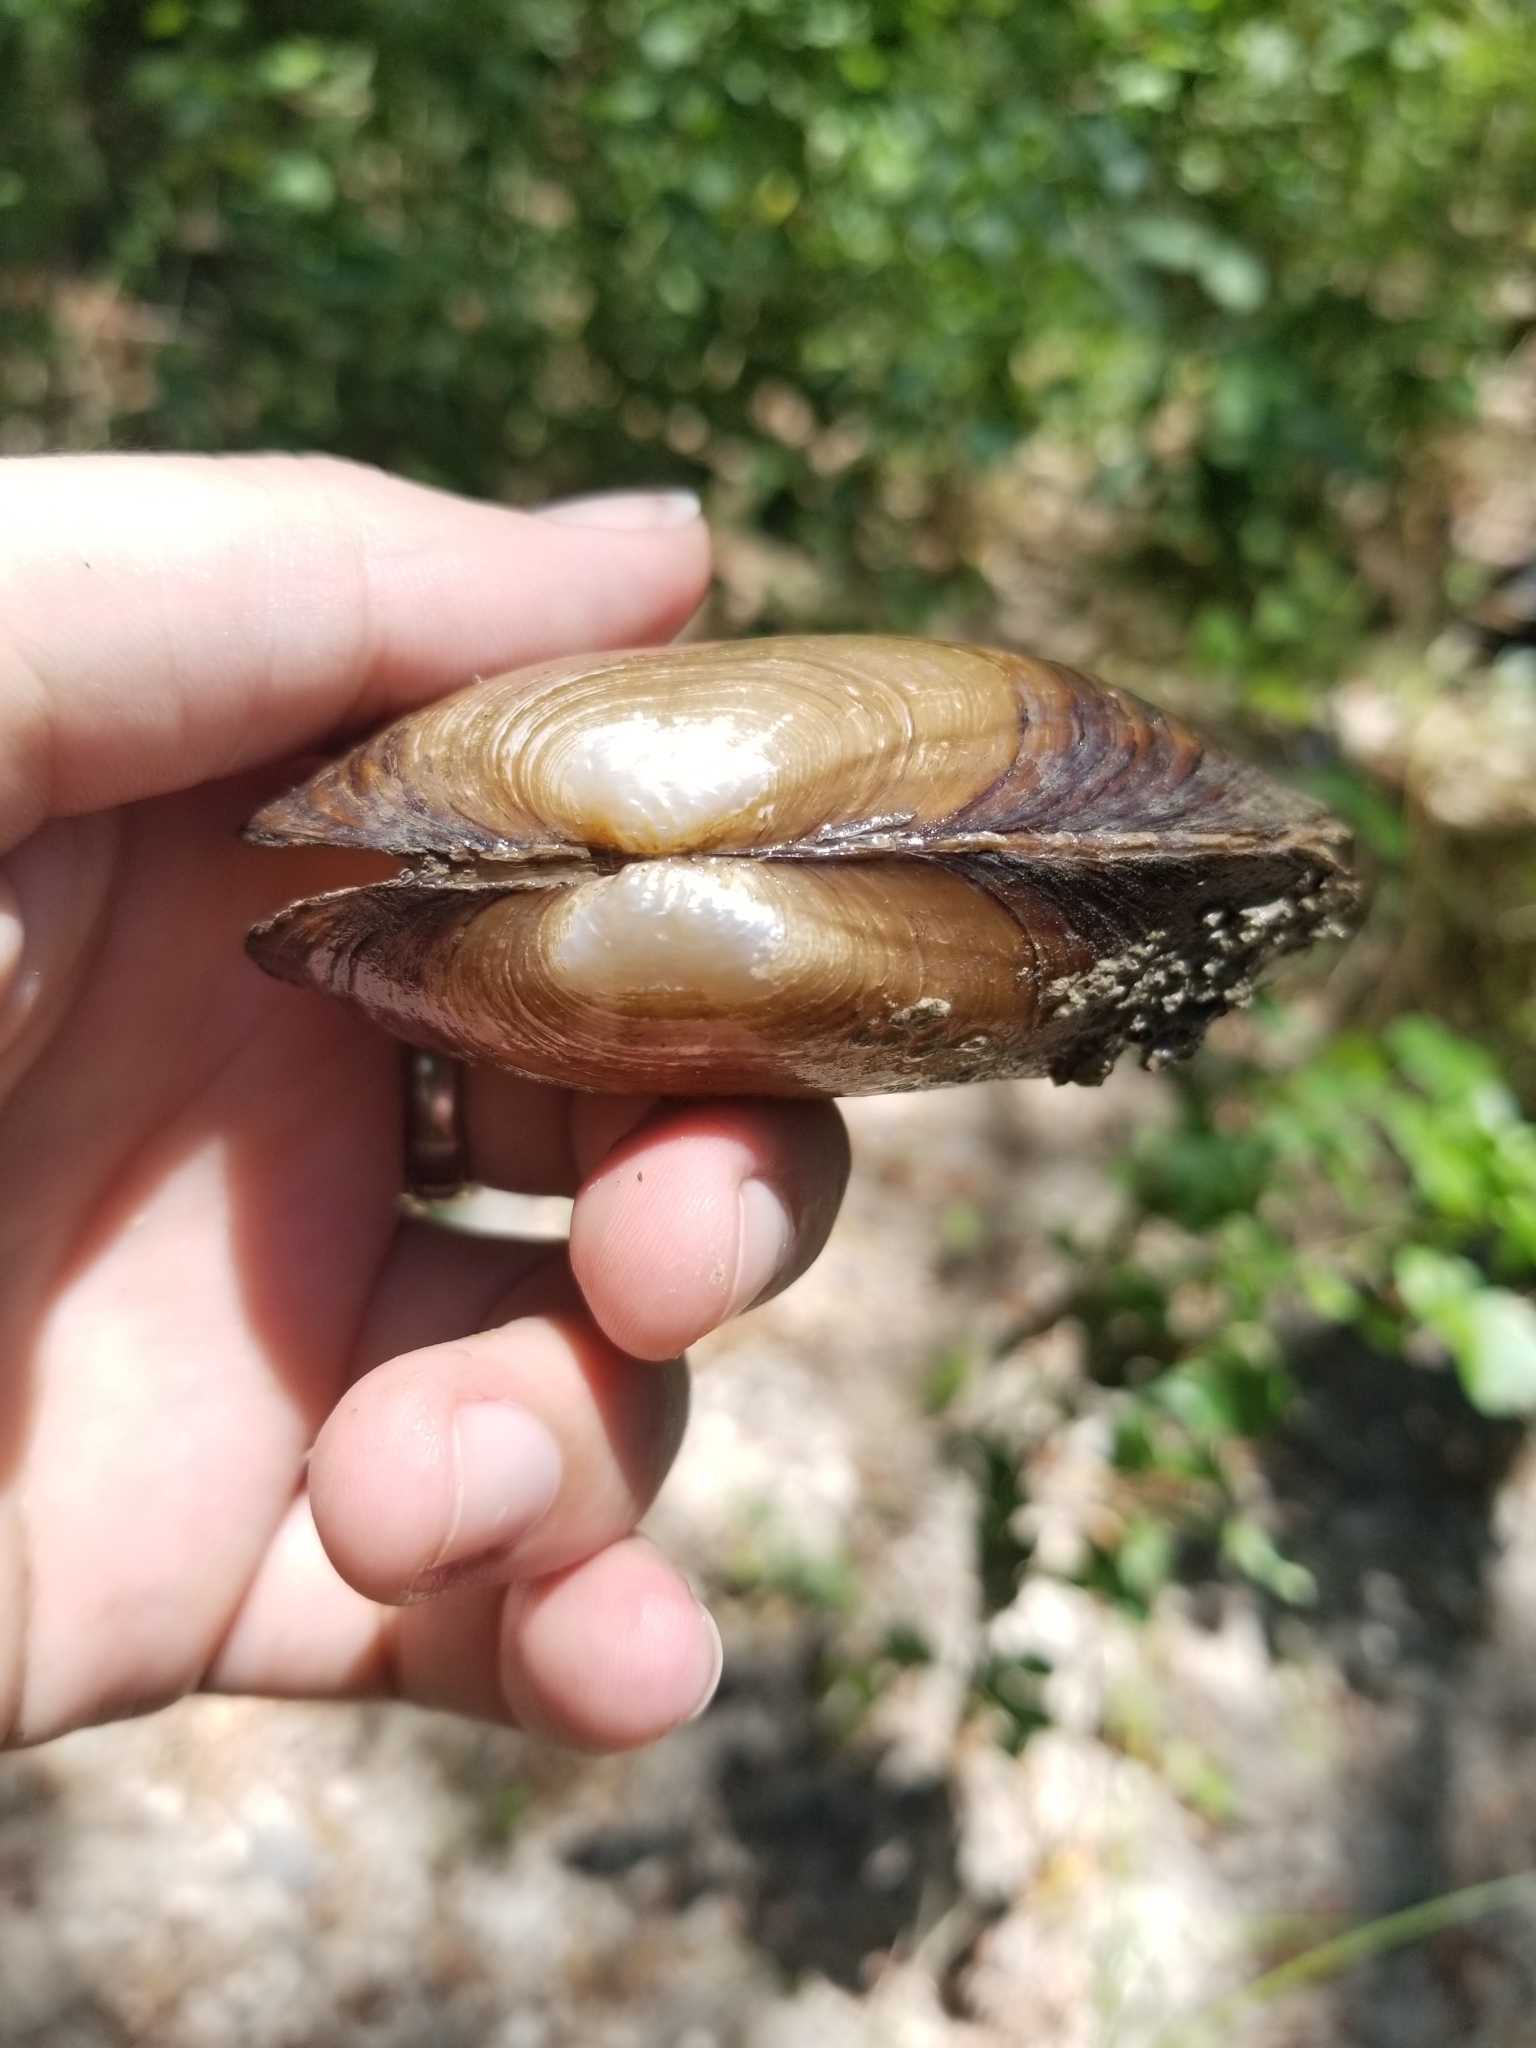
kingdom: Animalia
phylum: Mollusca
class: Bivalvia
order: Unionida
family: Unionidae
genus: Uniomerus
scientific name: Uniomerus tetralasmus
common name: Pondhorn
